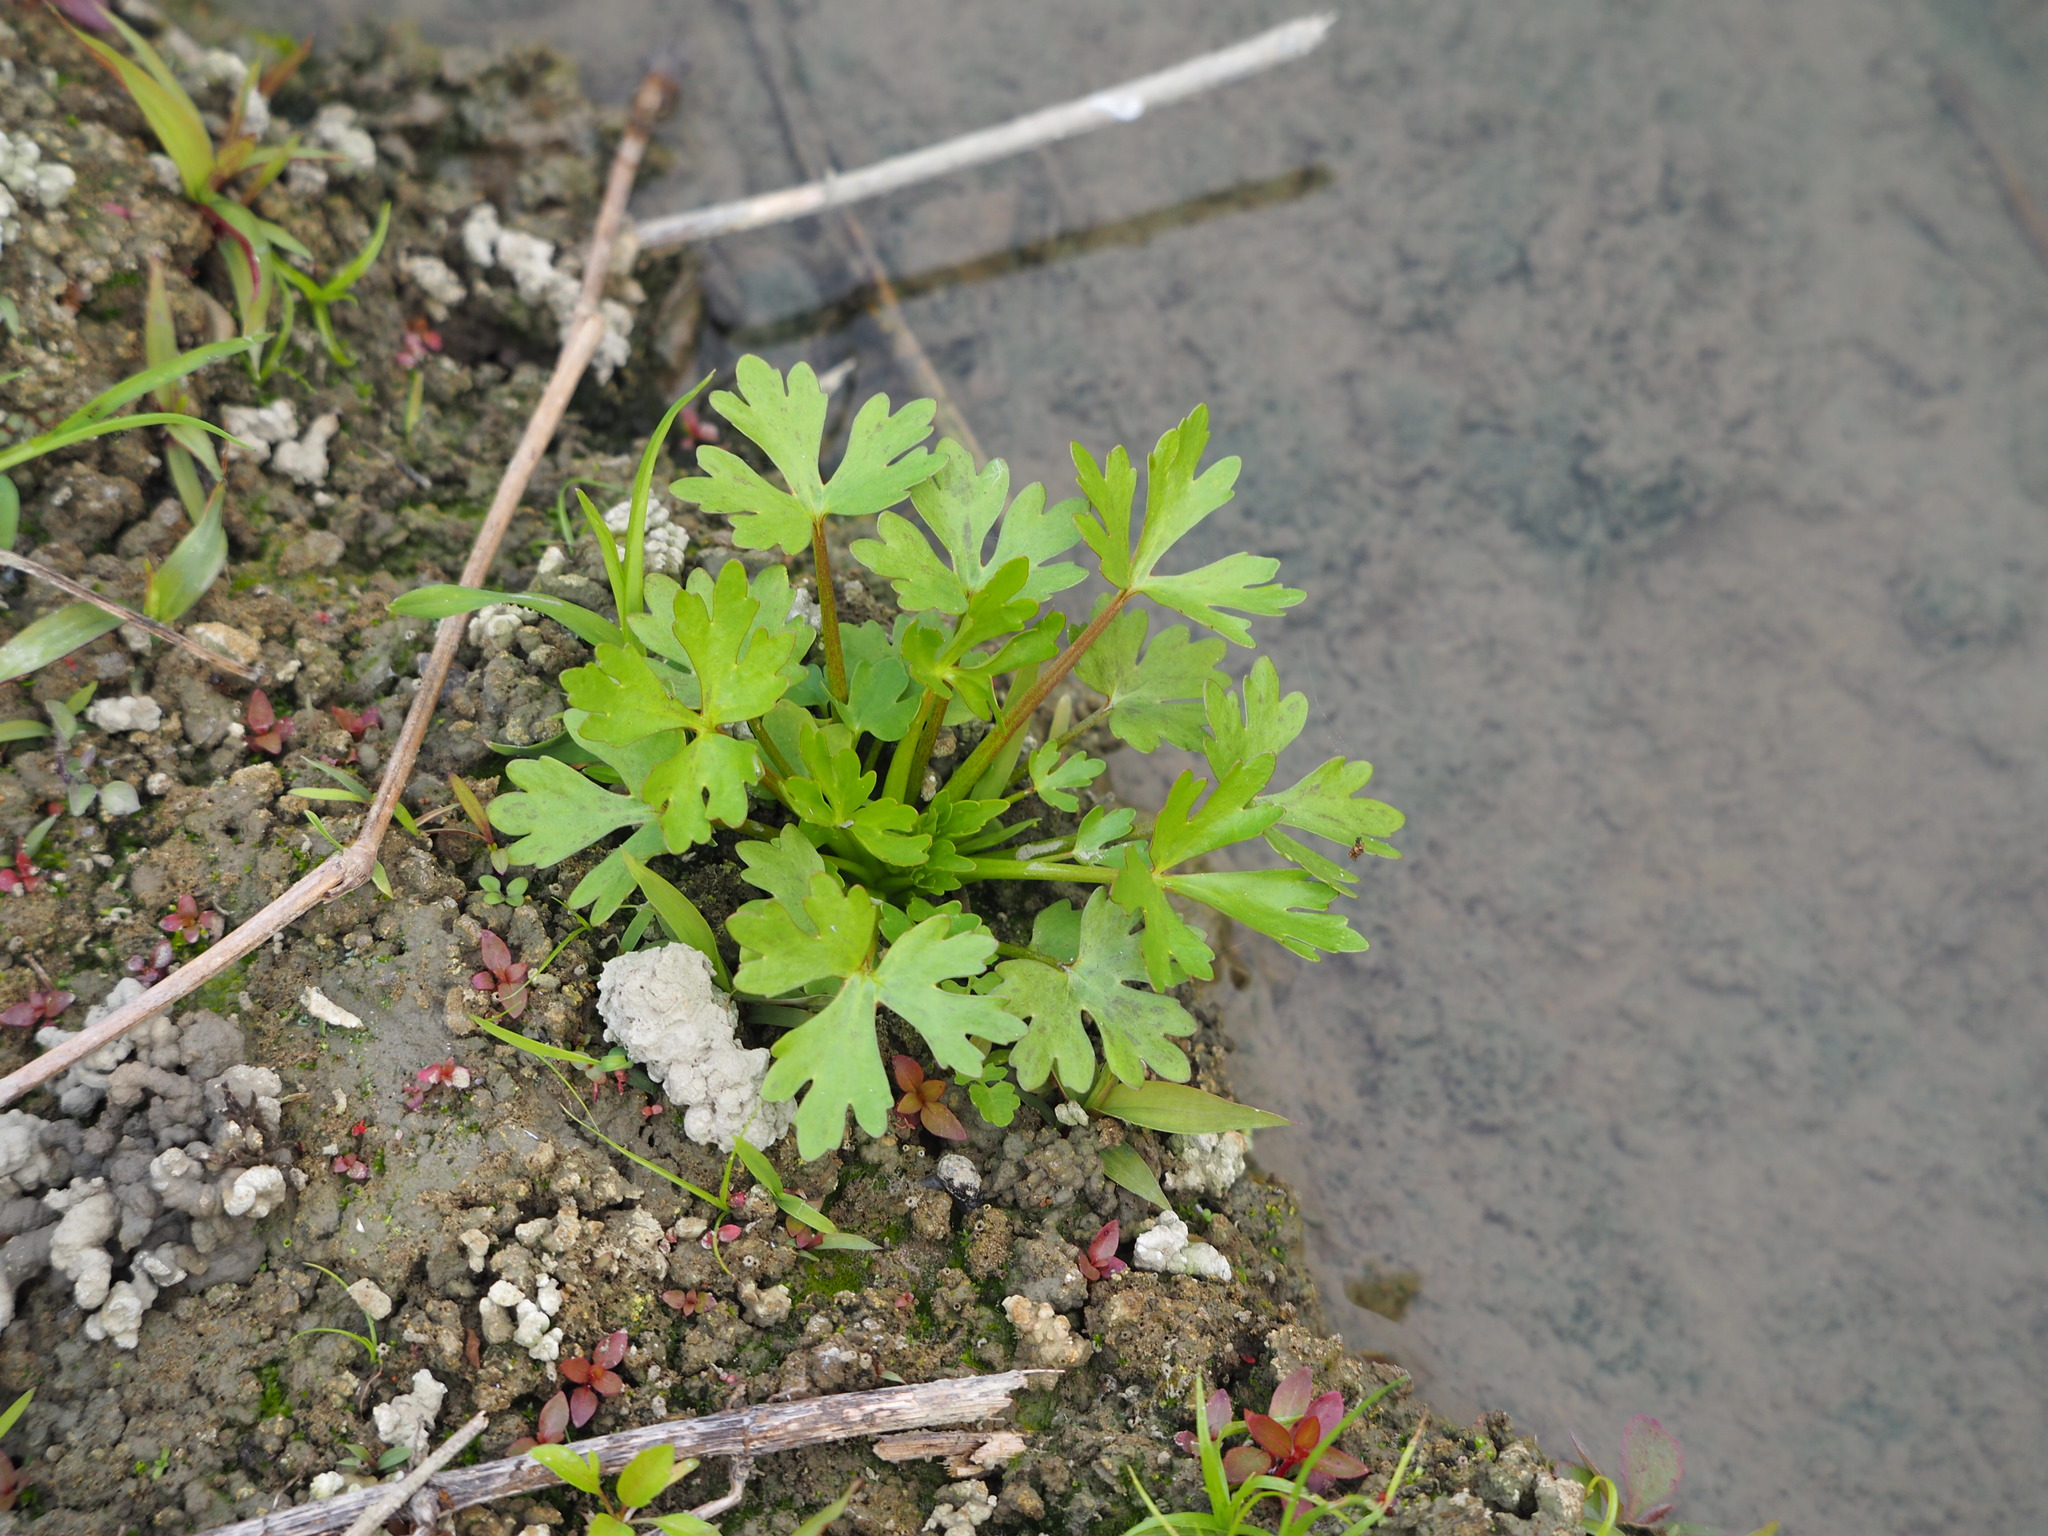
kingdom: Plantae
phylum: Tracheophyta
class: Magnoliopsida
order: Ranunculales
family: Ranunculaceae
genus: Ranunculus
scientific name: Ranunculus sceleratus
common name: Celery-leaved buttercup
